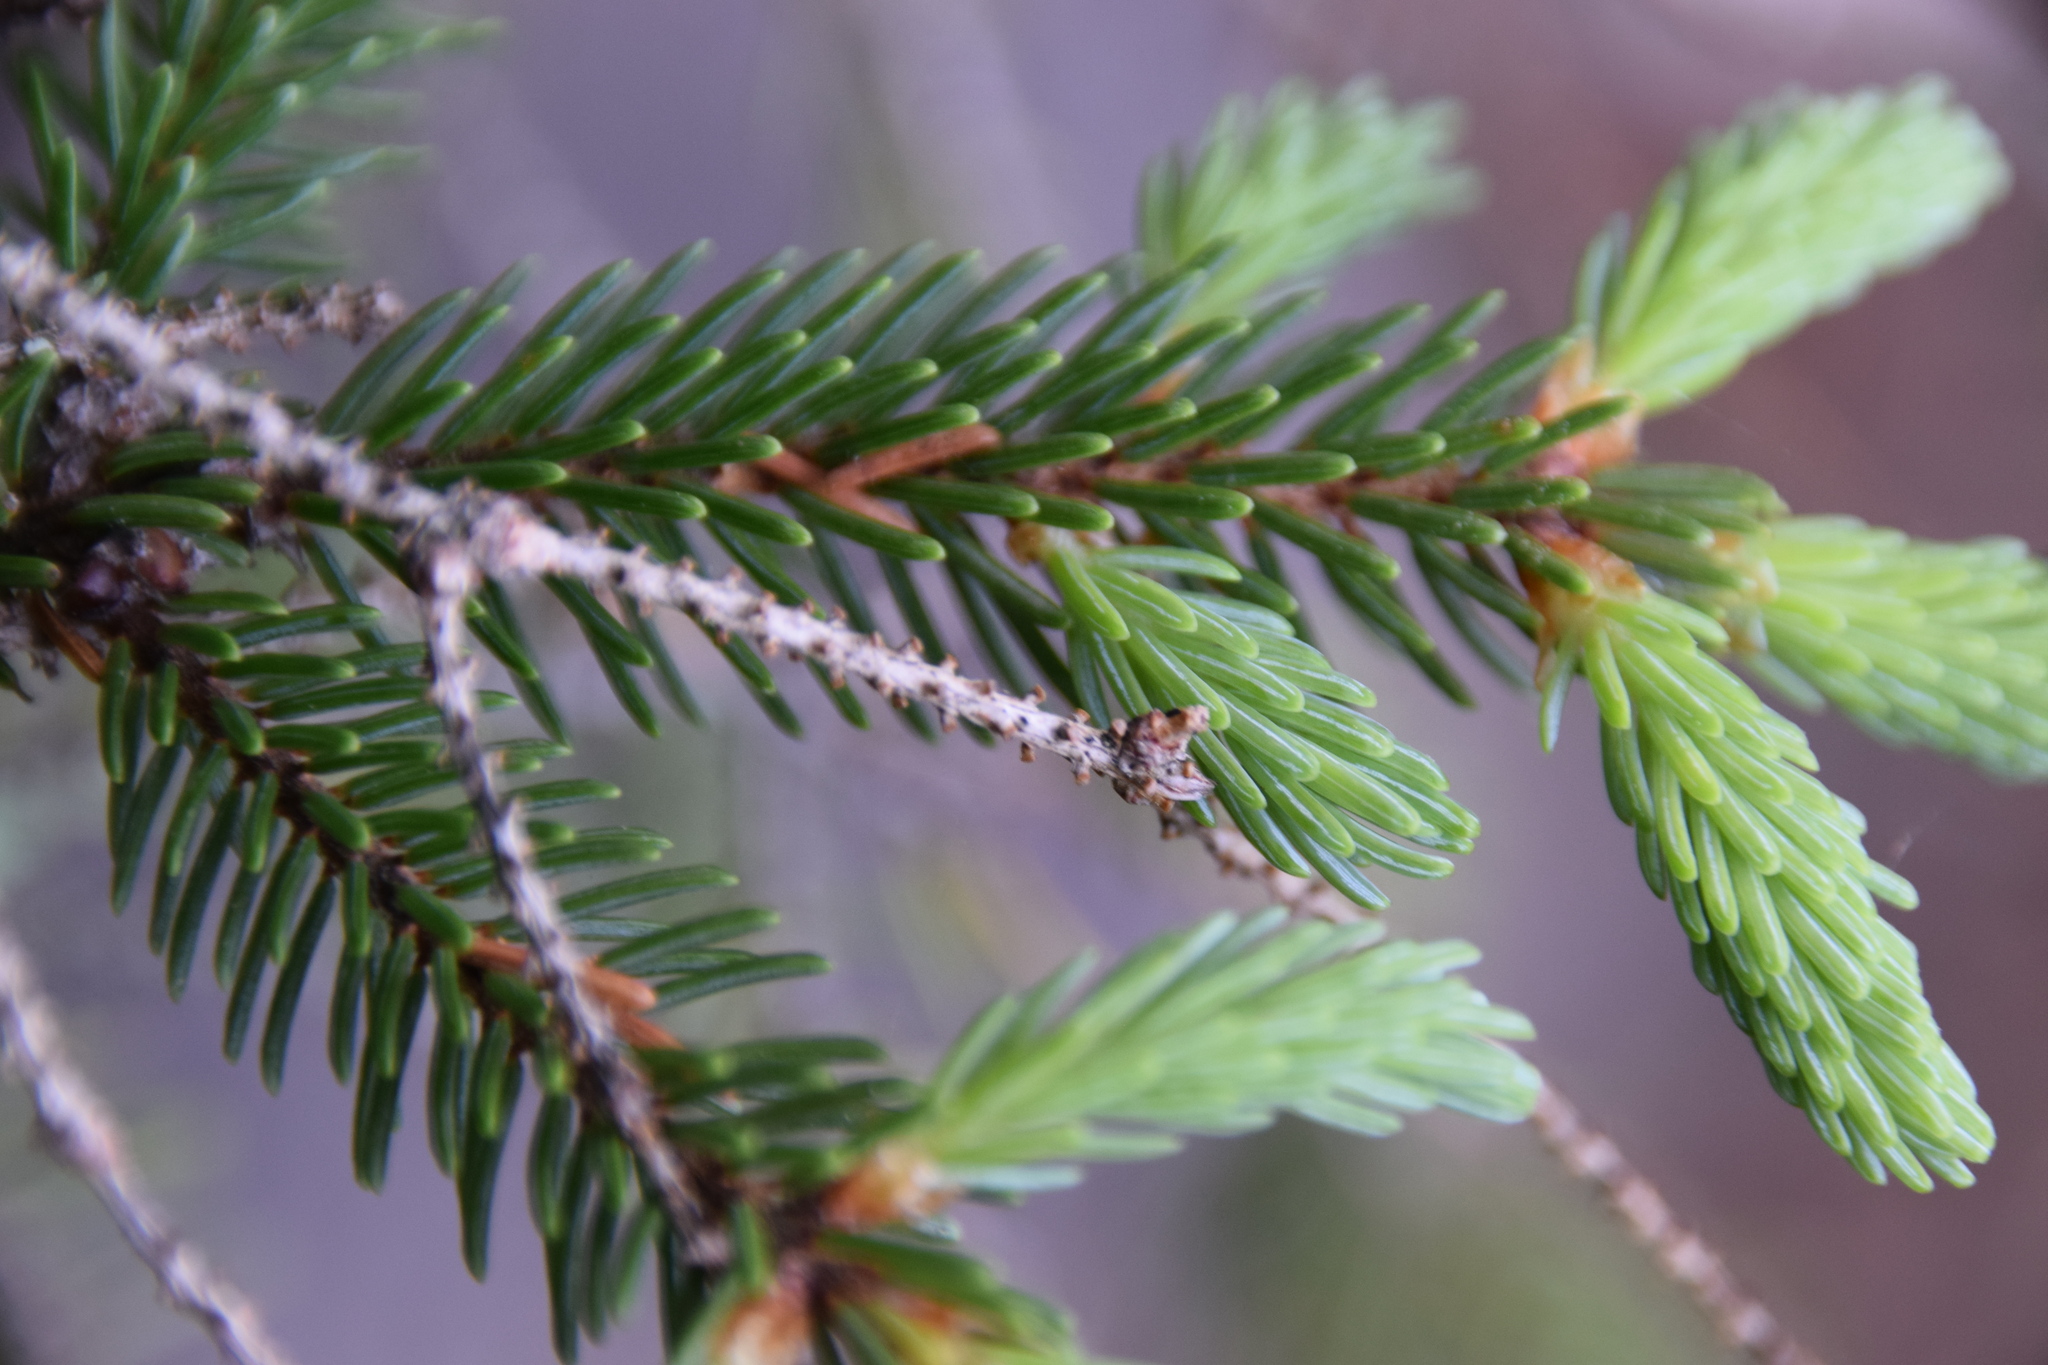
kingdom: Plantae
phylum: Tracheophyta
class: Pinopsida
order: Pinales
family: Pinaceae
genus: Picea
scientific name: Picea mariana
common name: Black spruce
